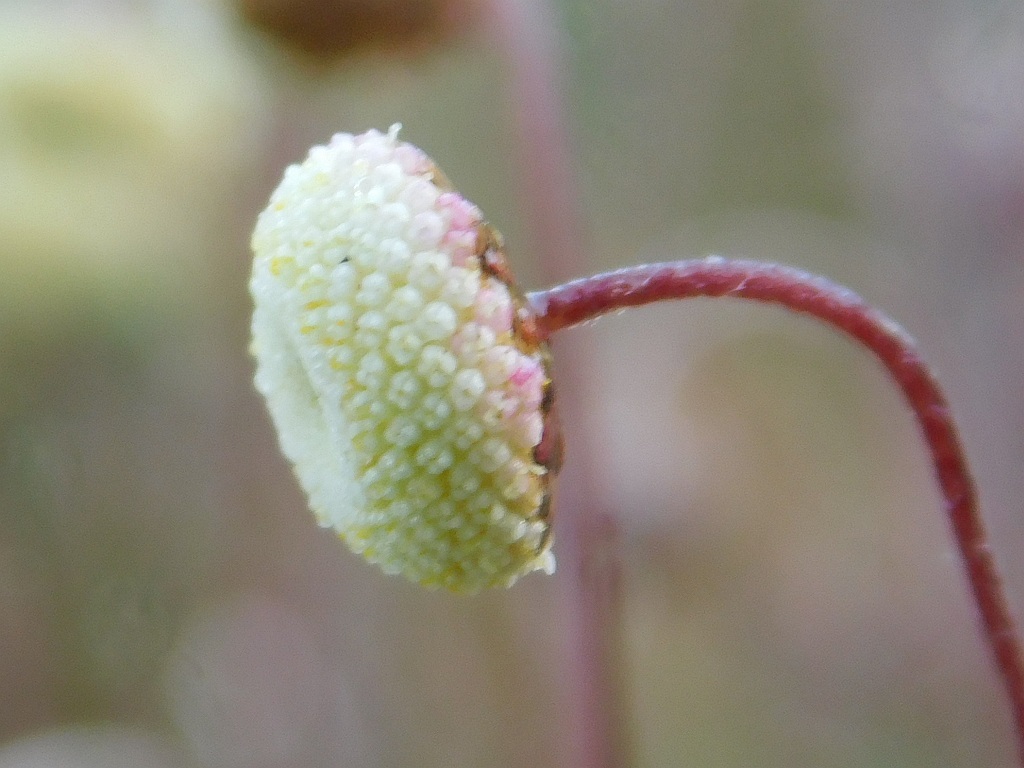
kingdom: Plantae
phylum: Tracheophyta
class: Magnoliopsida
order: Asterales
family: Asteraceae
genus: Cotula
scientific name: Cotula ceniifolia
